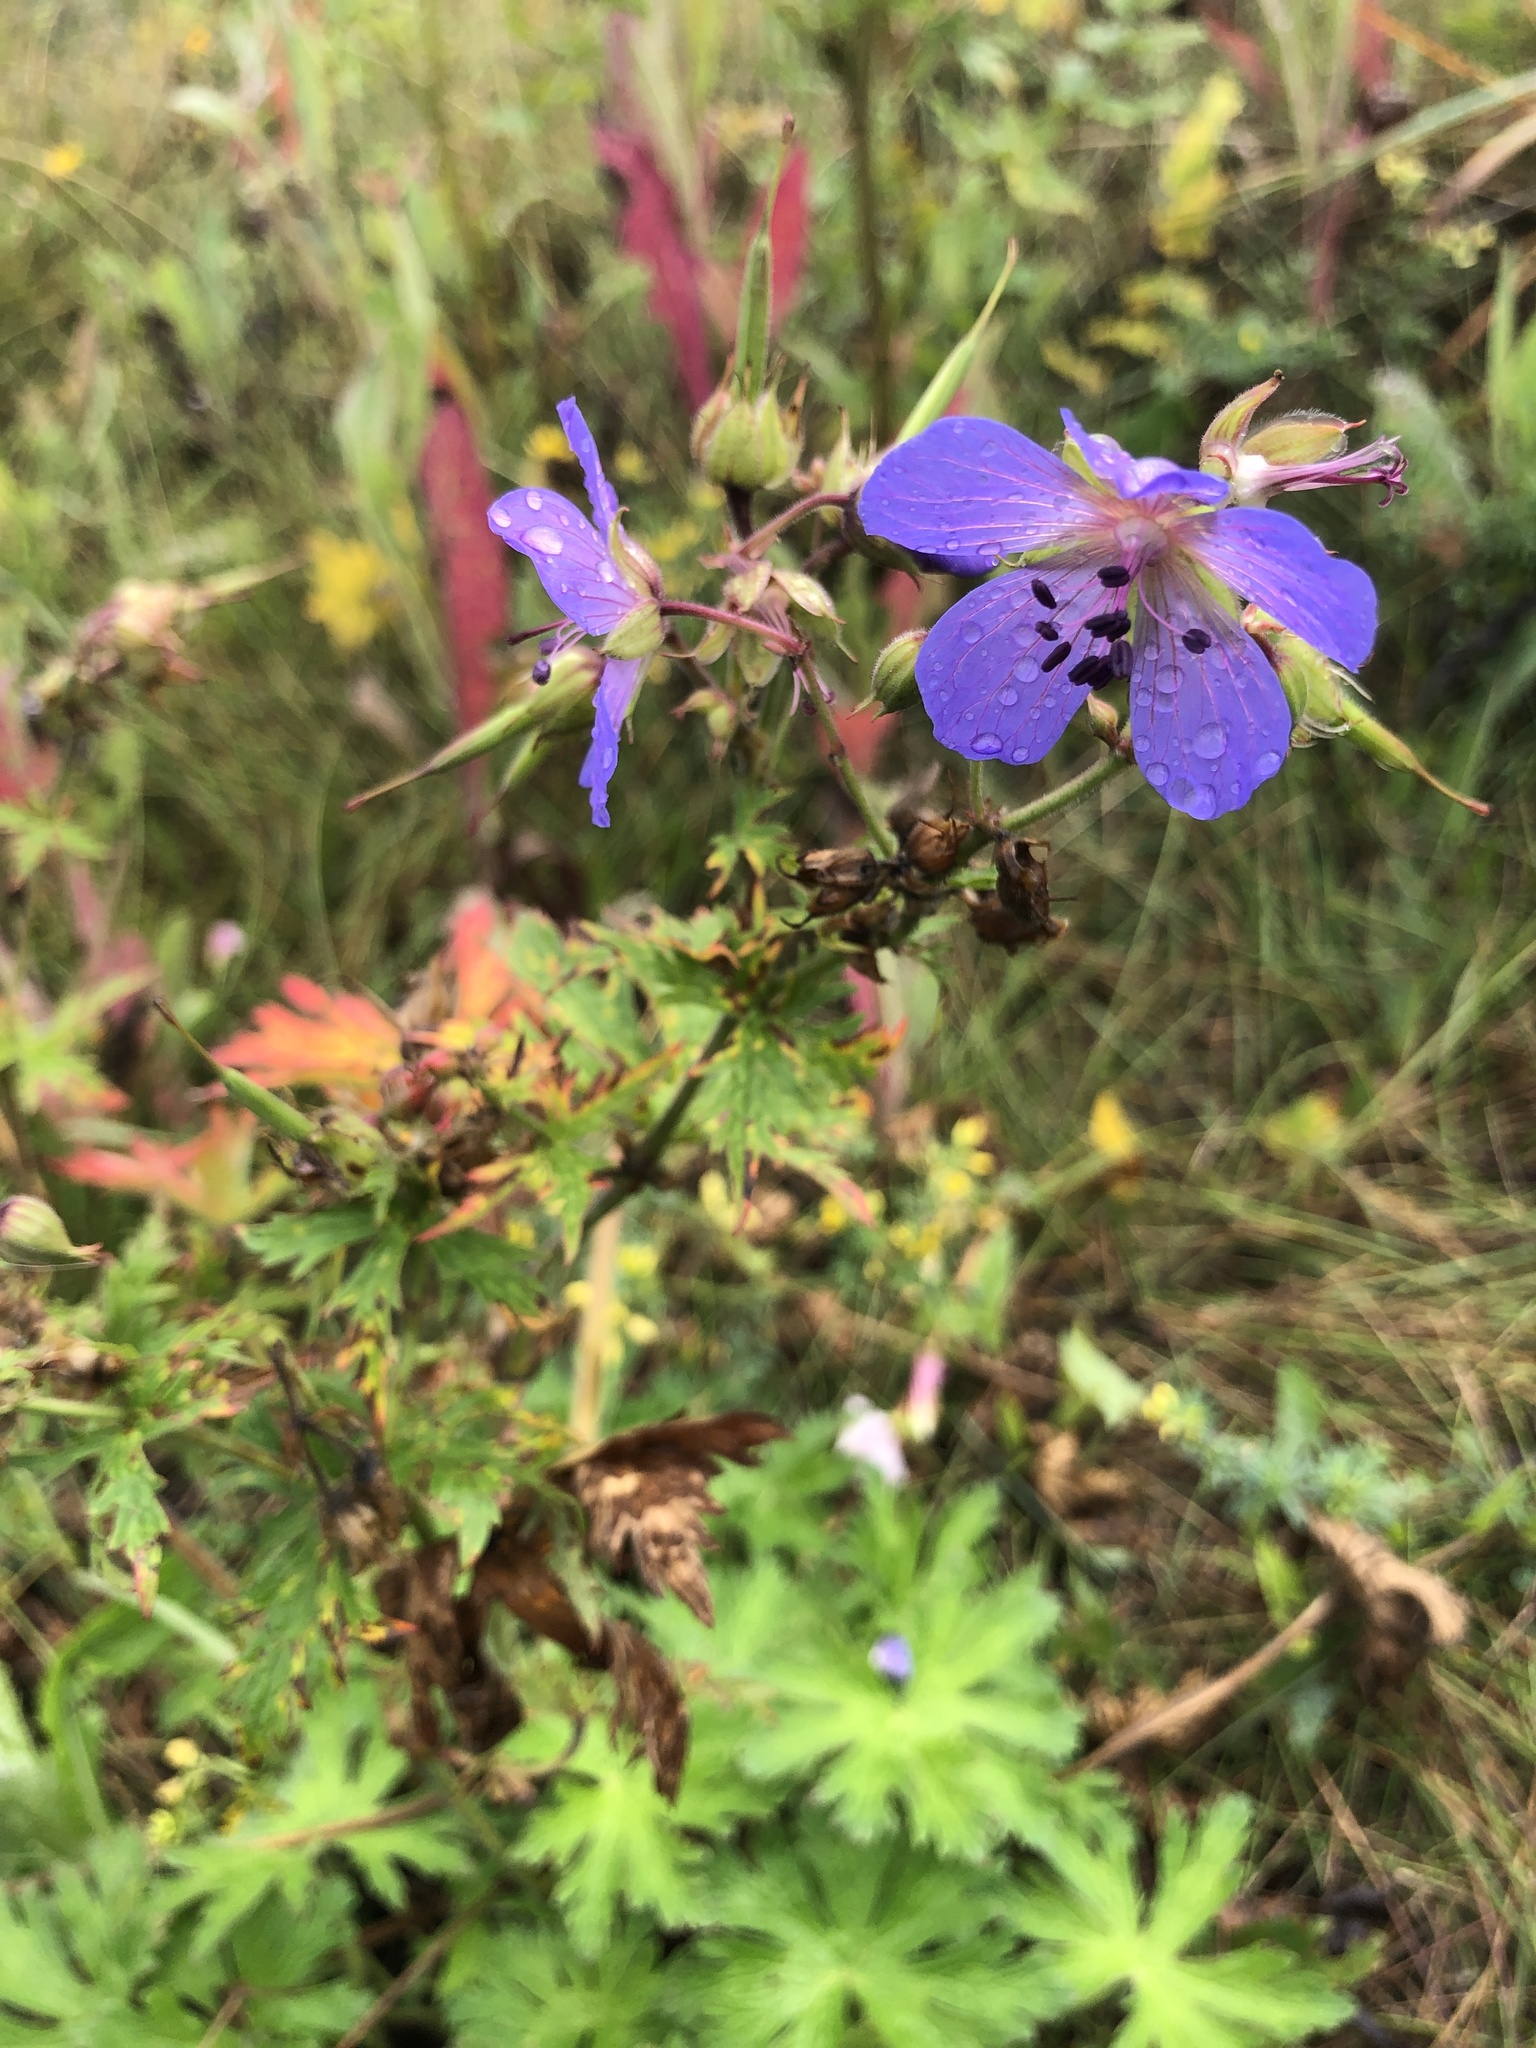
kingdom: Plantae
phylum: Tracheophyta
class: Magnoliopsida
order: Geraniales
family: Geraniaceae
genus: Geranium
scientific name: Geranium pratense
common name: Meadow crane's-bill
